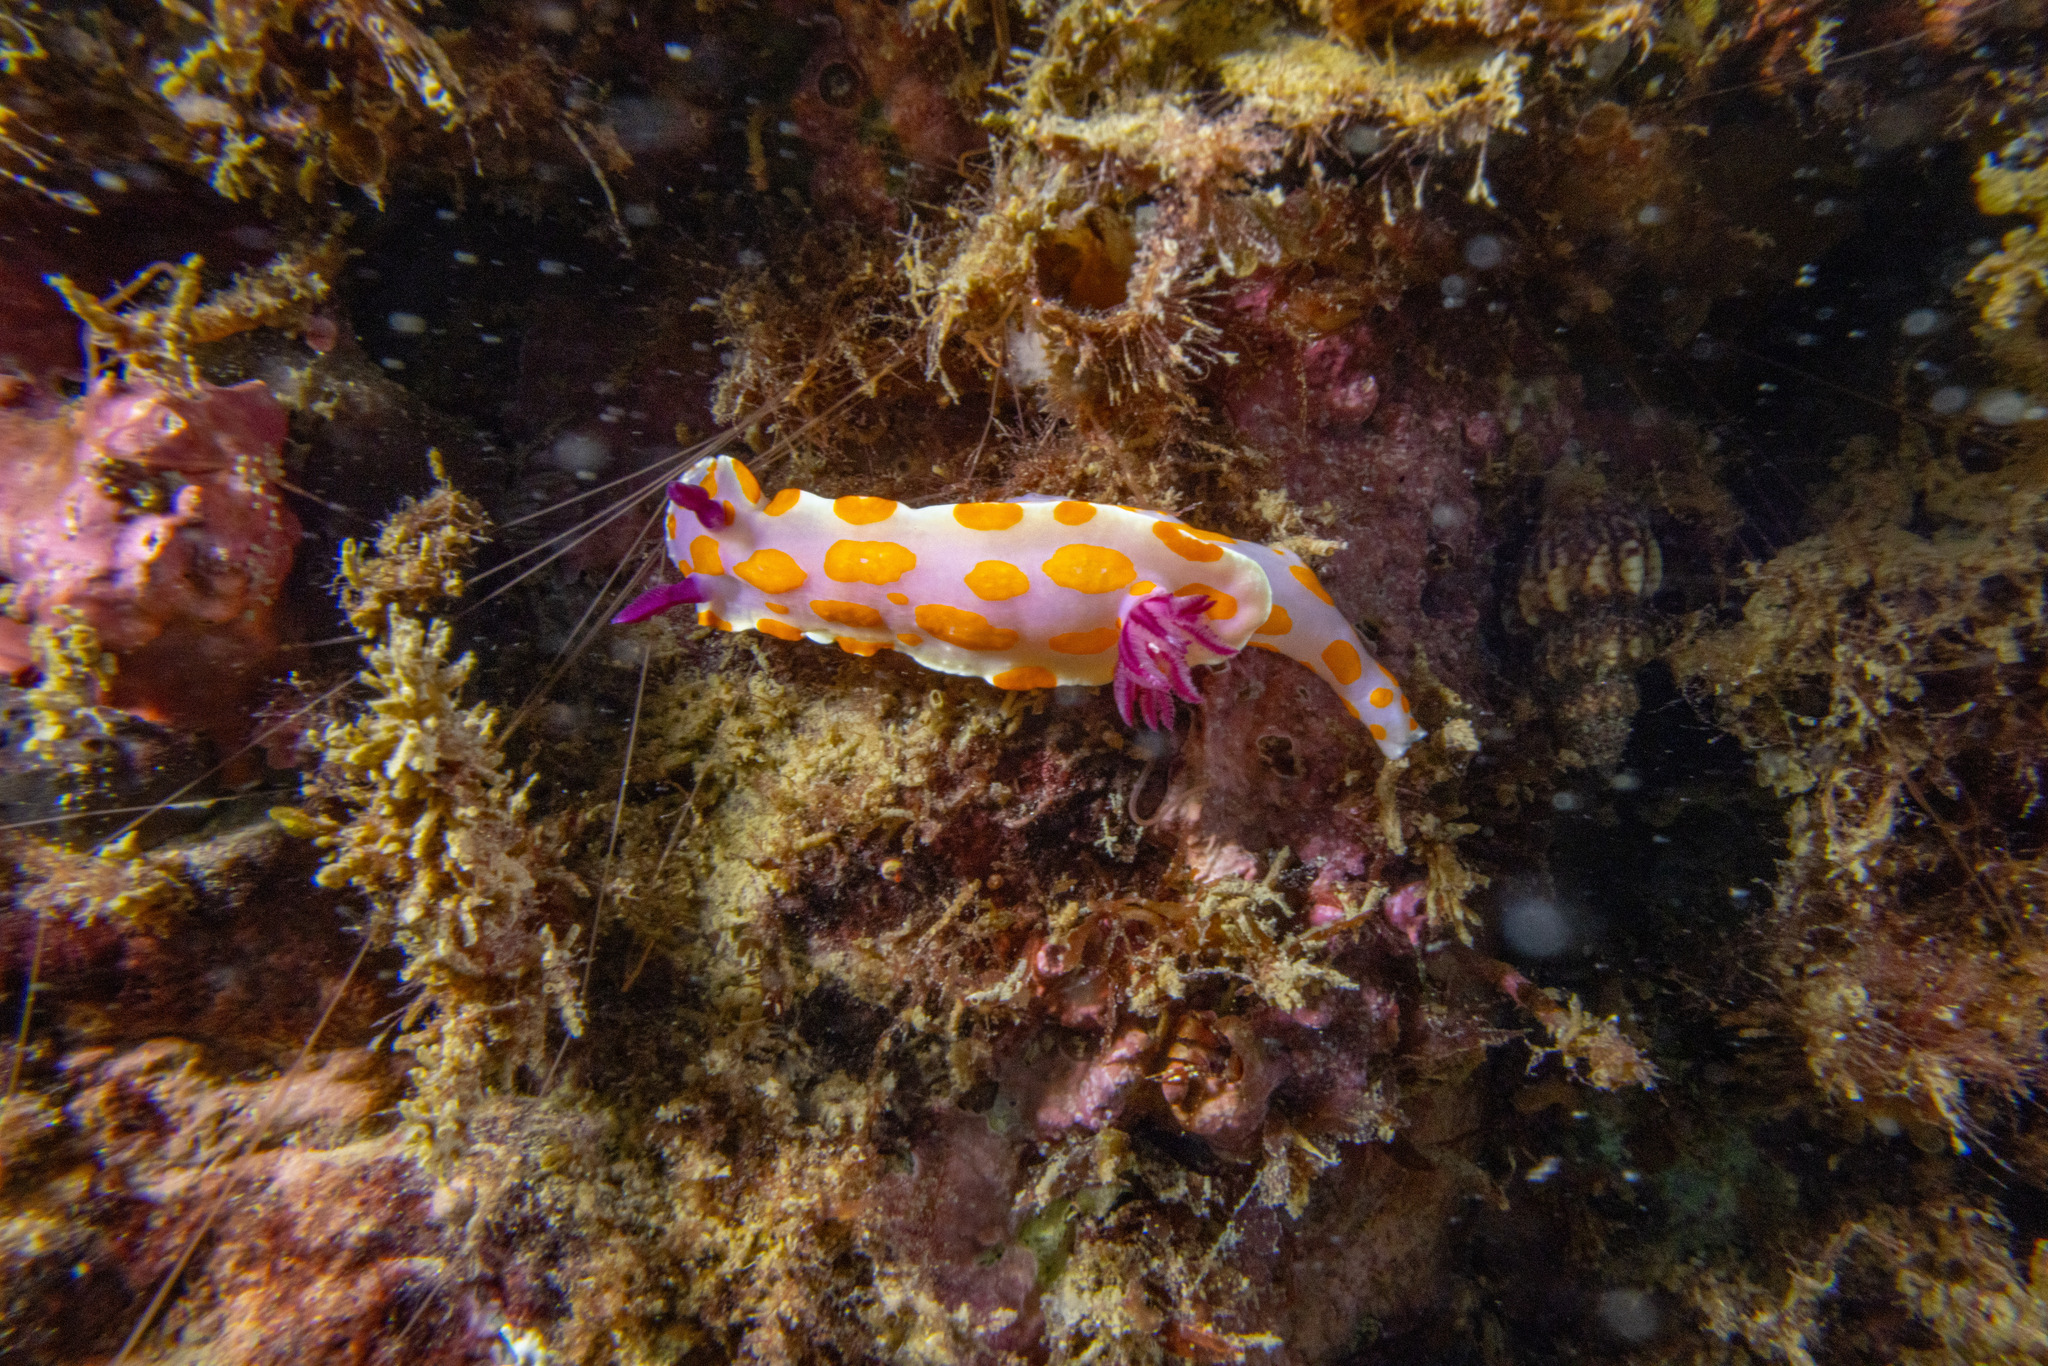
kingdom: Animalia
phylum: Mollusca
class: Gastropoda
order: Nudibranchia
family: Chromodorididae
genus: Ceratosoma
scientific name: Ceratosoma amoenum
